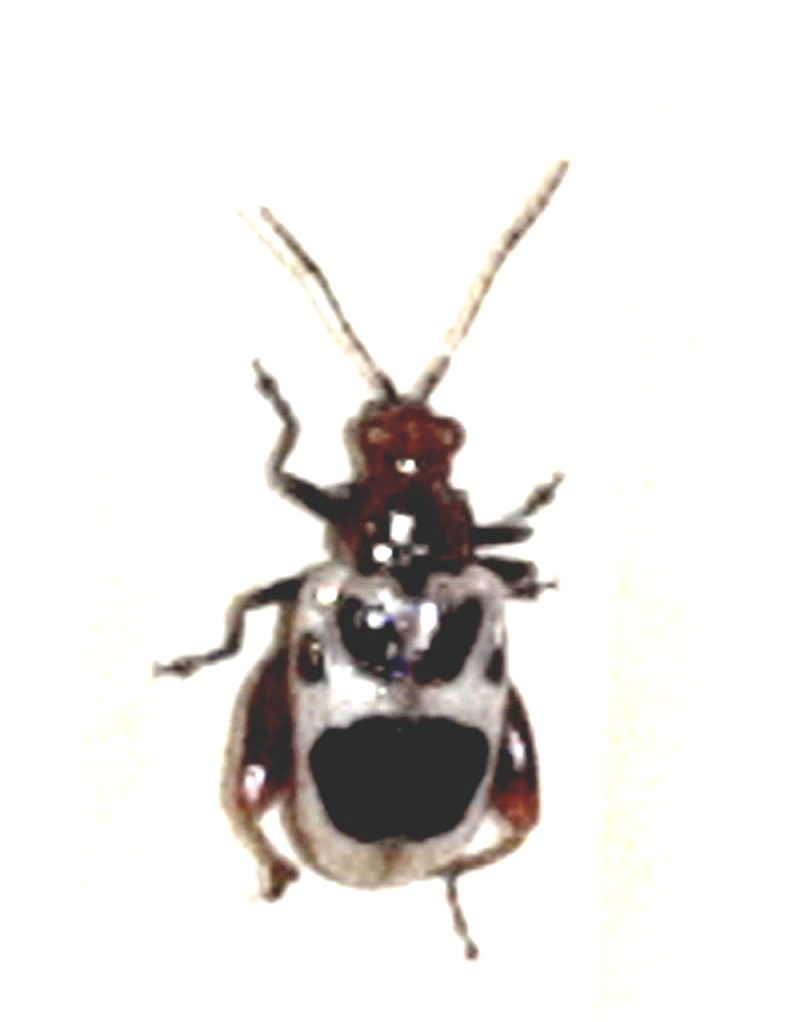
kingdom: Animalia
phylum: Arthropoda
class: Insecta
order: Coleoptera
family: Chrysomelidae
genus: Allochroma
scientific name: Allochroma
